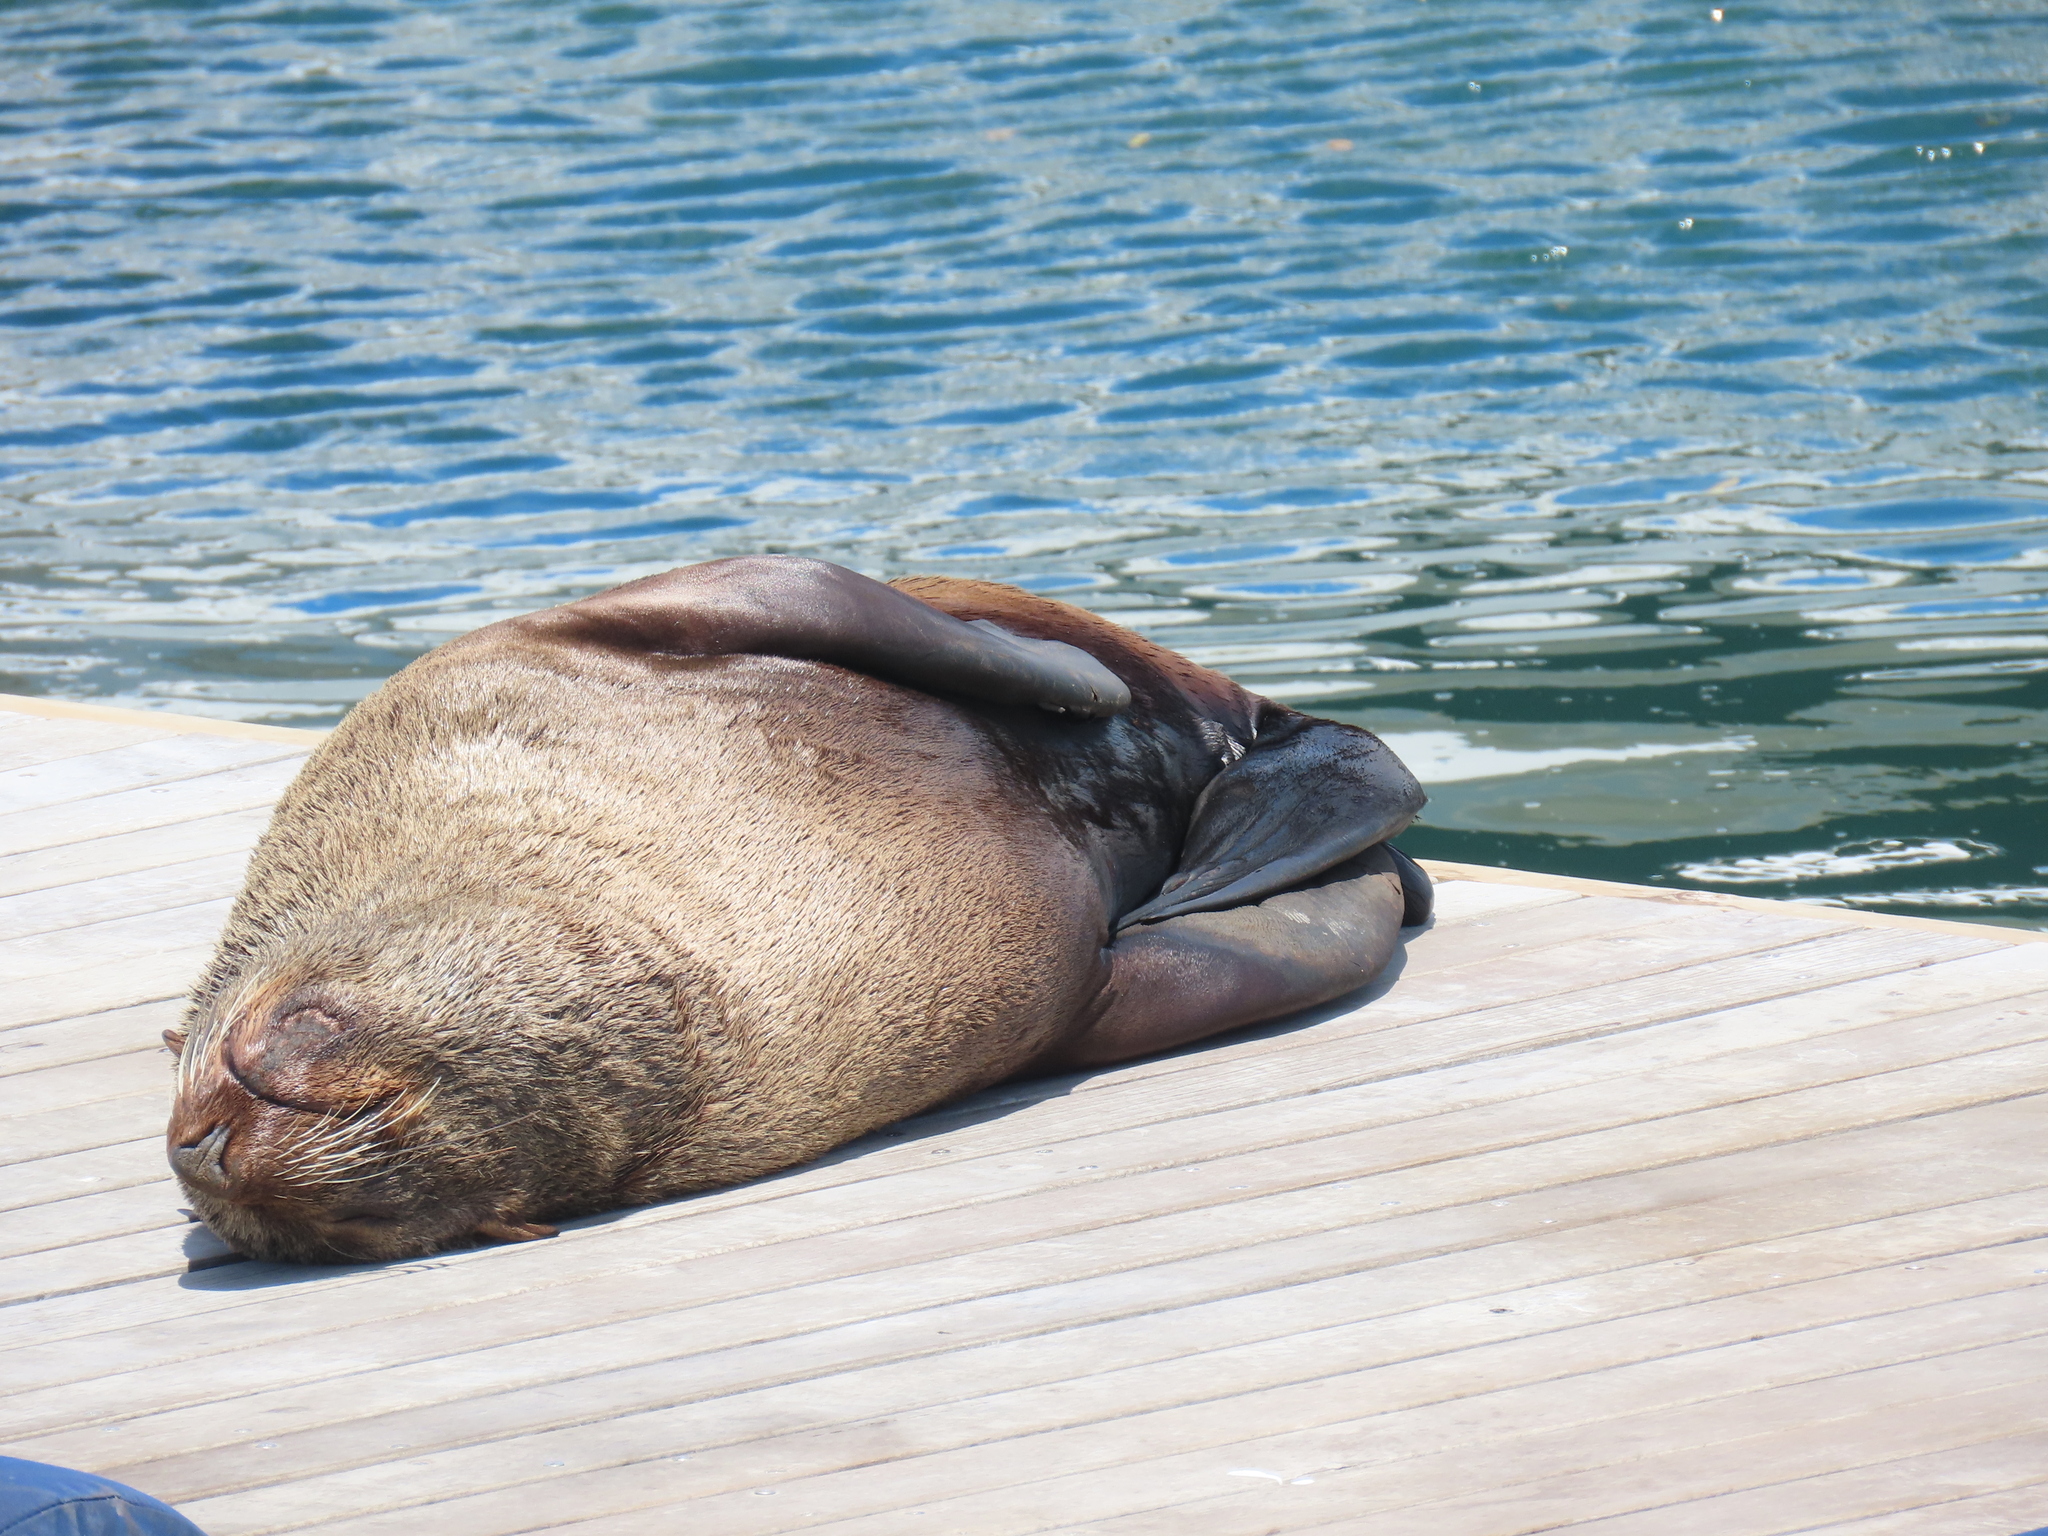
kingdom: Animalia
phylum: Chordata
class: Mammalia
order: Carnivora
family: Otariidae
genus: Arctocephalus
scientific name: Arctocephalus pusillus
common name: Brown fur seal
